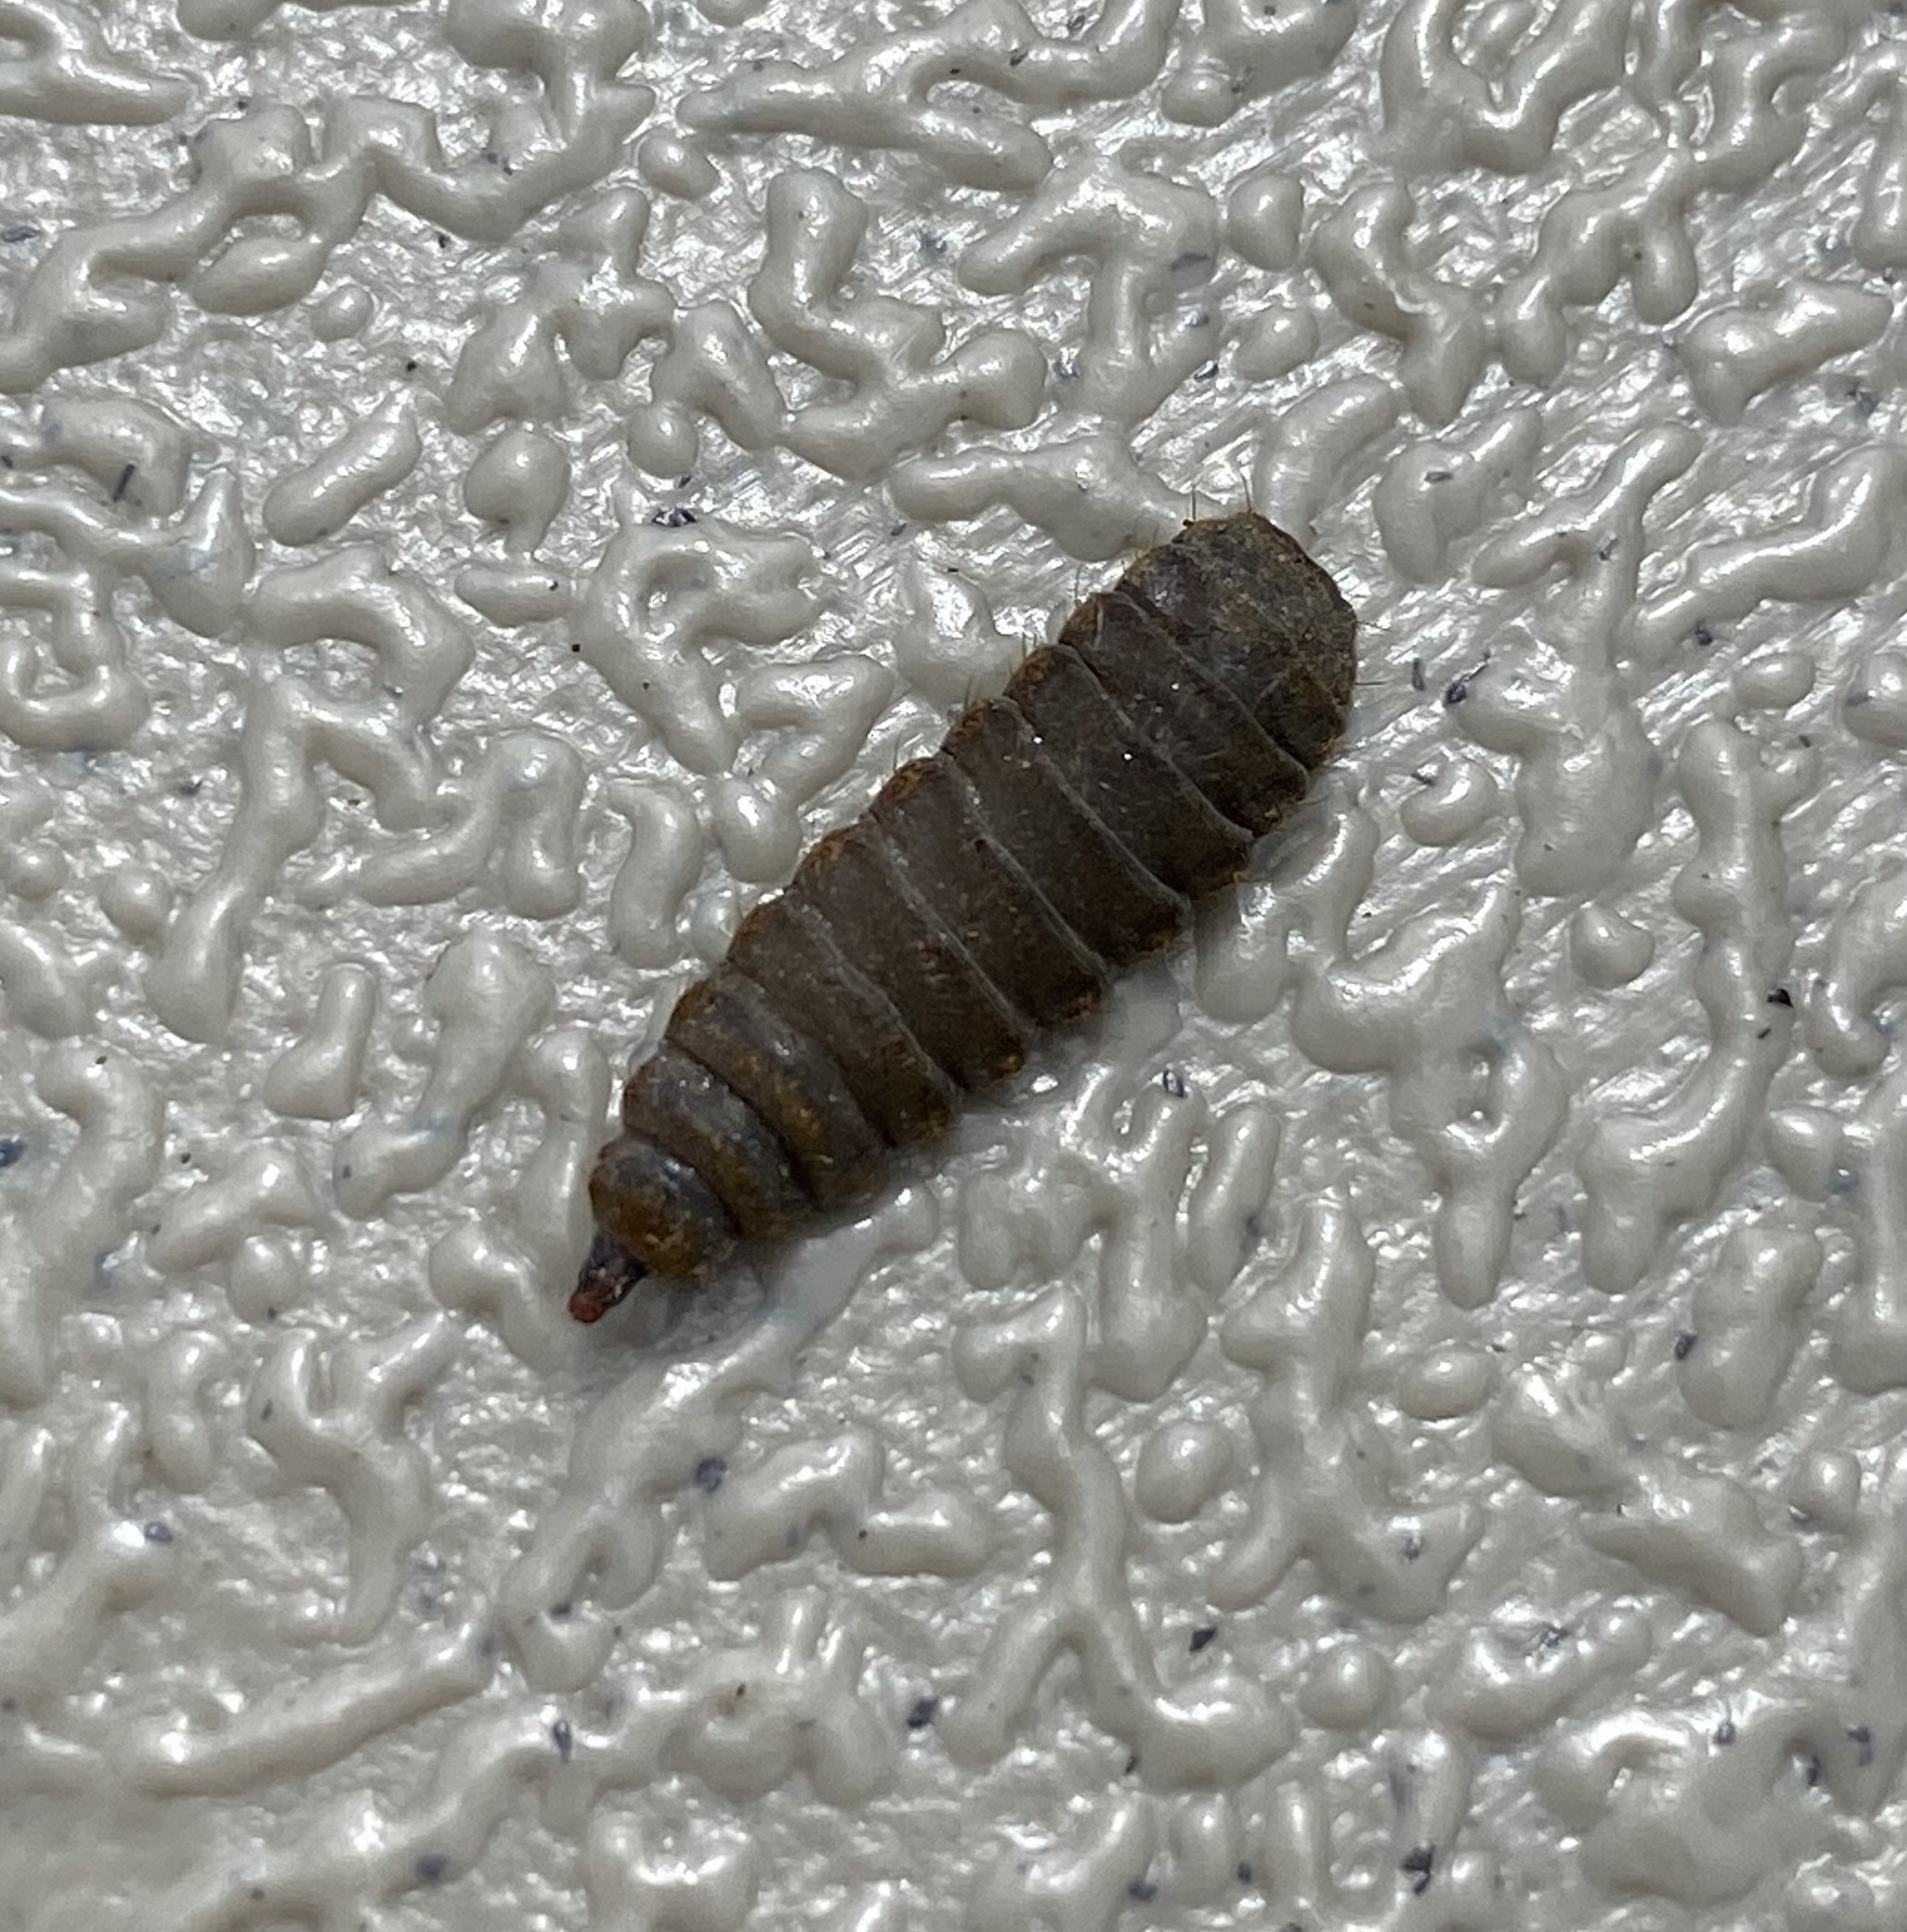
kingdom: Animalia
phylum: Arthropoda
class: Insecta
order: Diptera
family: Stratiomyidae
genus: Hermetia
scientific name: Hermetia illucens
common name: Black soldier fly
